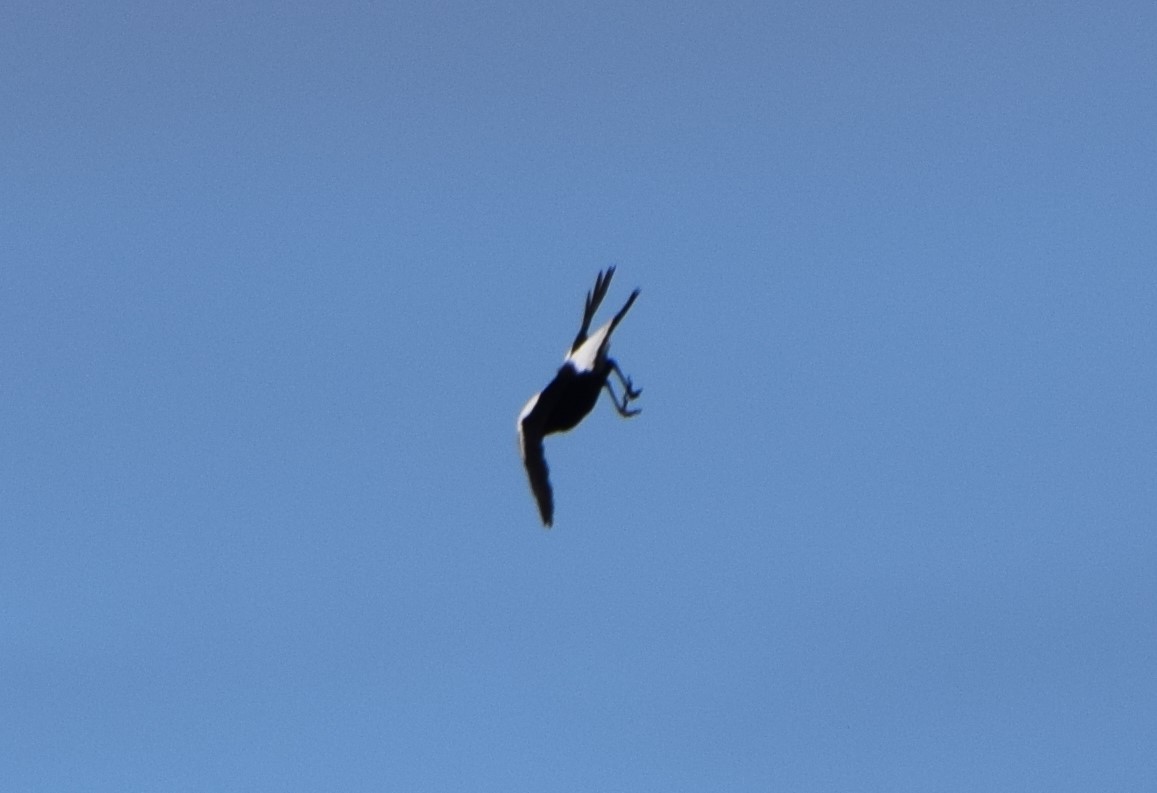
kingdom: Animalia
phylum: Chordata
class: Aves
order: Passeriformes
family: Cracticidae
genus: Gymnorhina
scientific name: Gymnorhina tibicen
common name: Australian magpie
